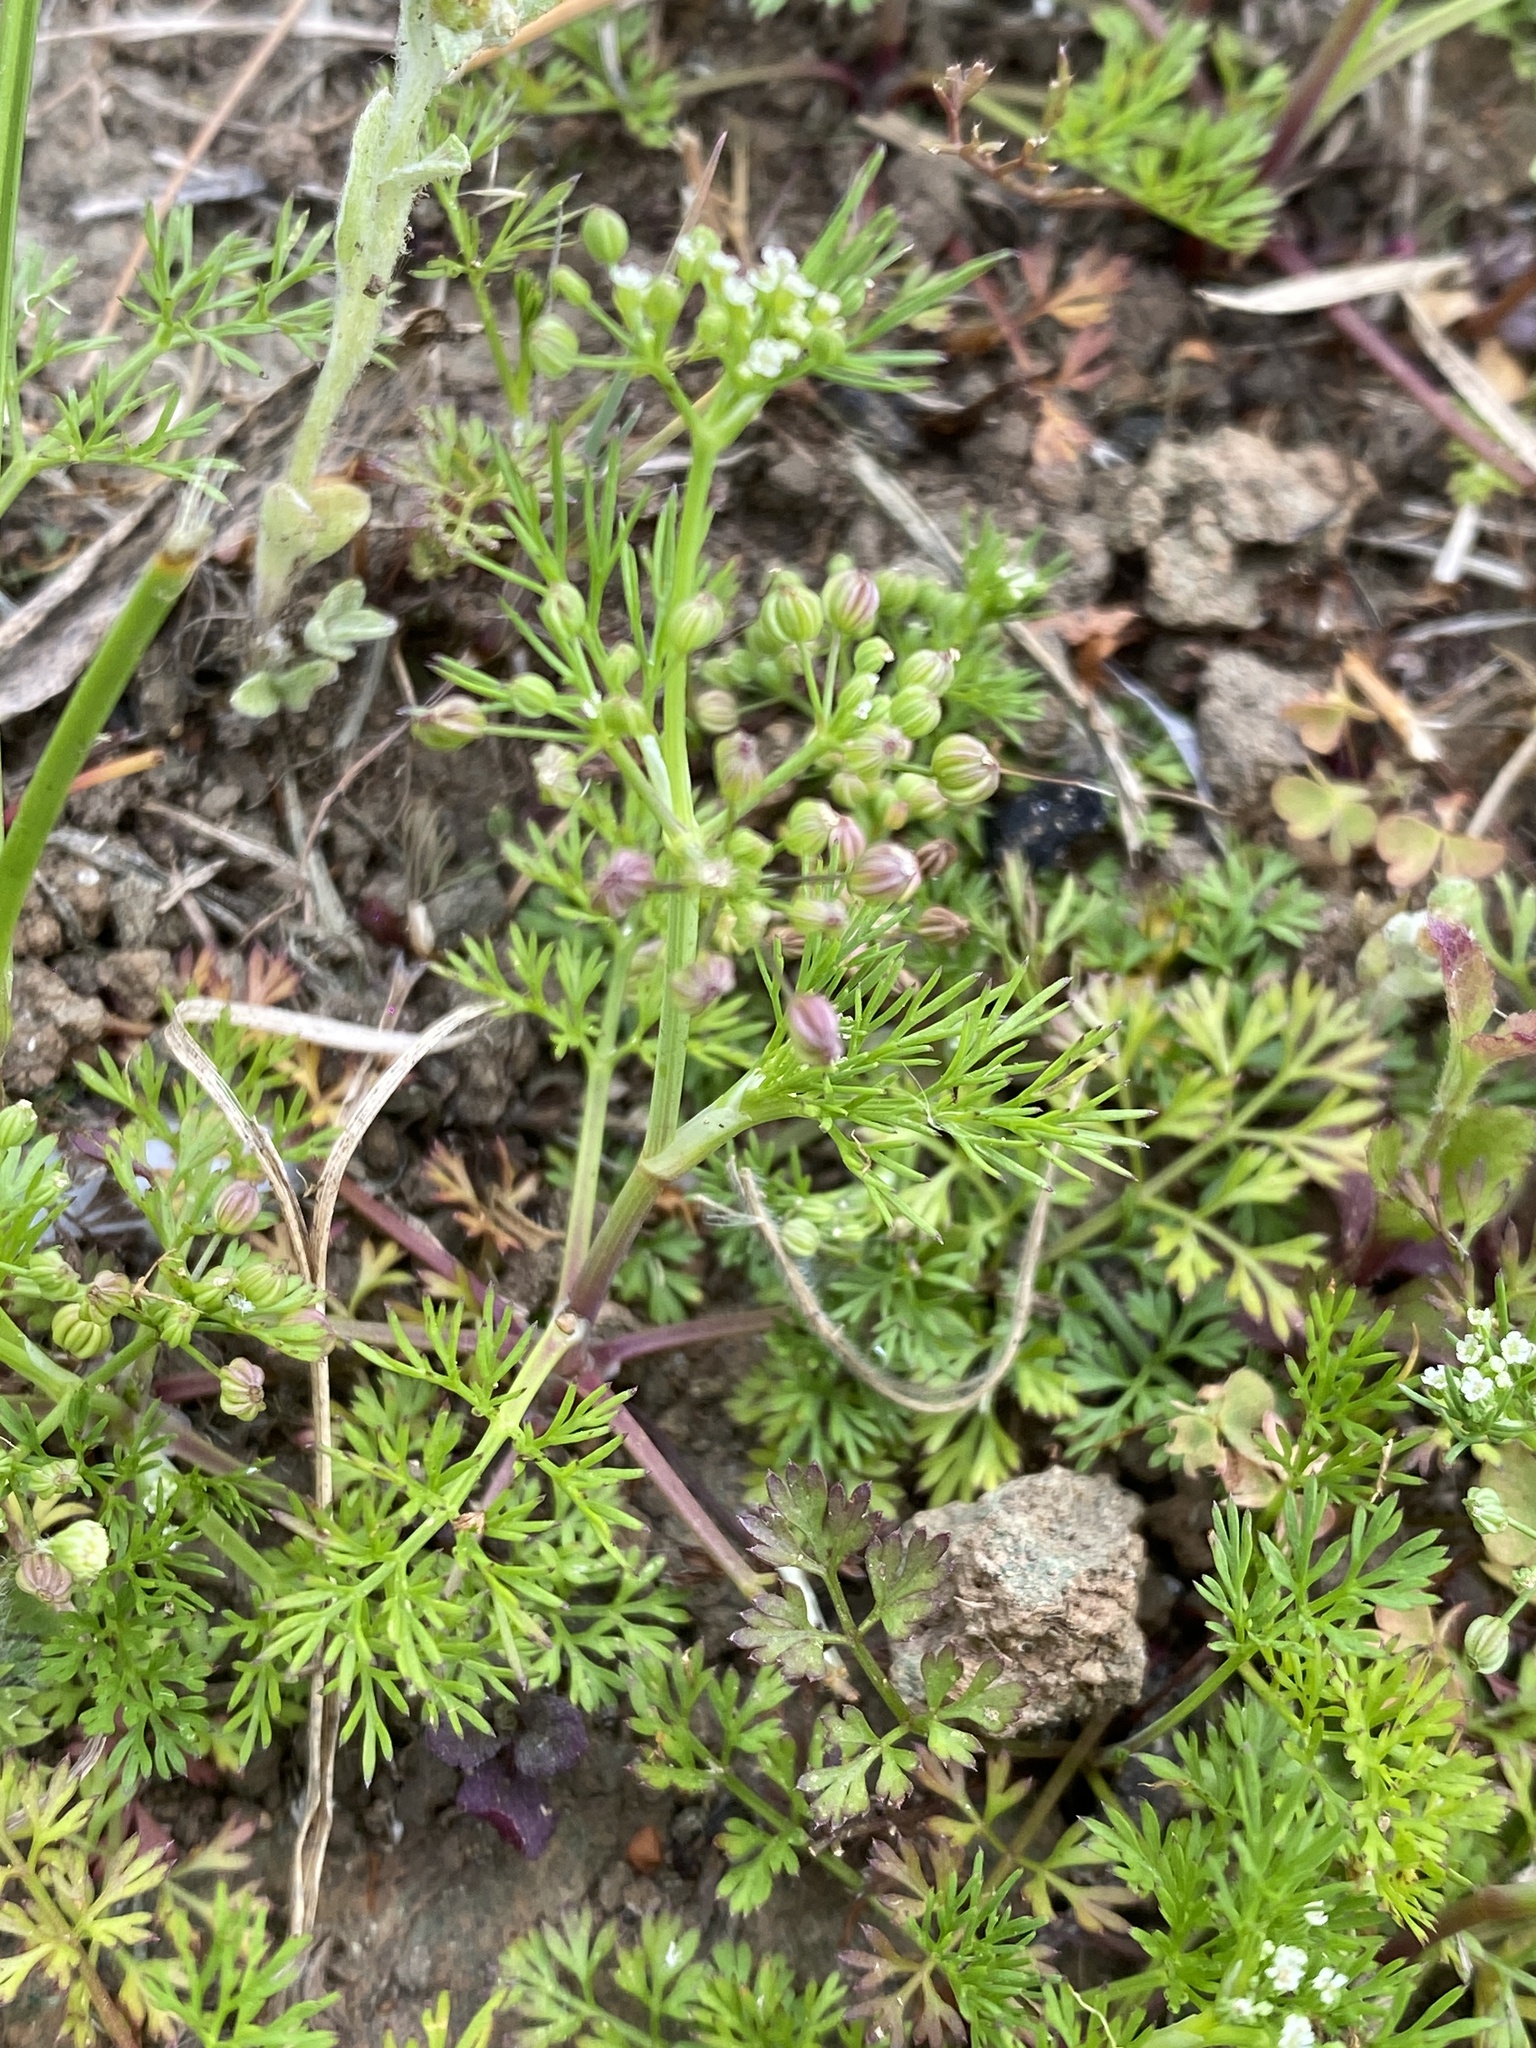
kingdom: Plantae
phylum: Tracheophyta
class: Magnoliopsida
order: Apiales
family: Apiaceae
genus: Cyclospermum
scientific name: Cyclospermum leptophyllum
